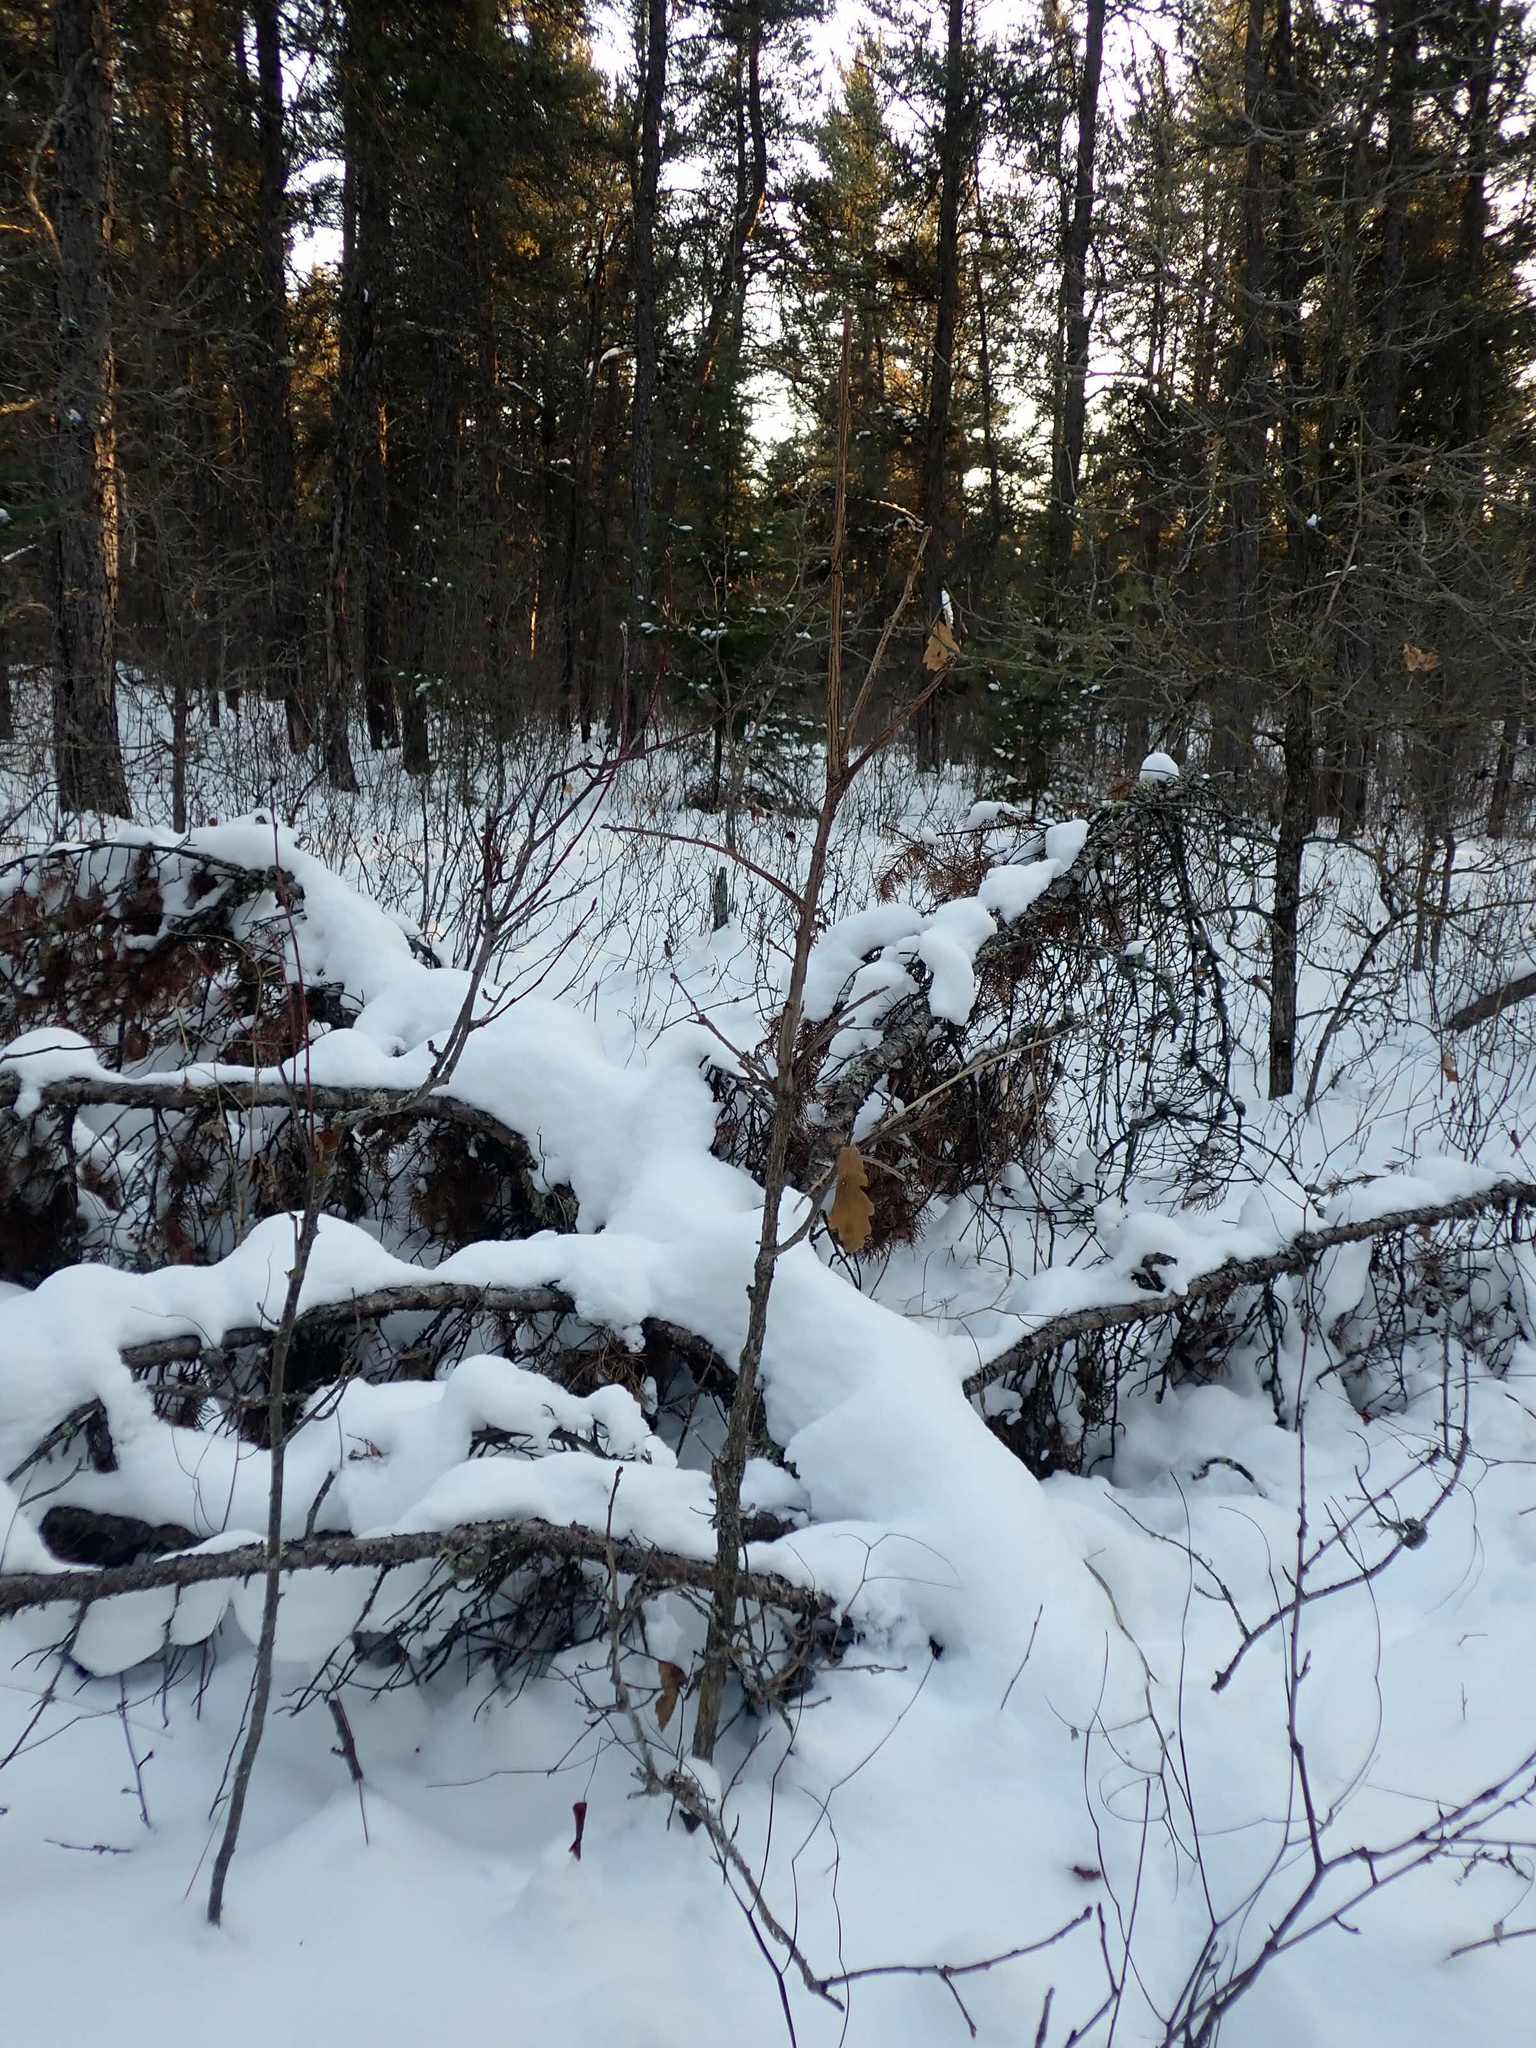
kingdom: Plantae
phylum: Tracheophyta
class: Magnoliopsida
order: Fagales
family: Fagaceae
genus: Quercus
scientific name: Quercus macrocarpa
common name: Bur oak
